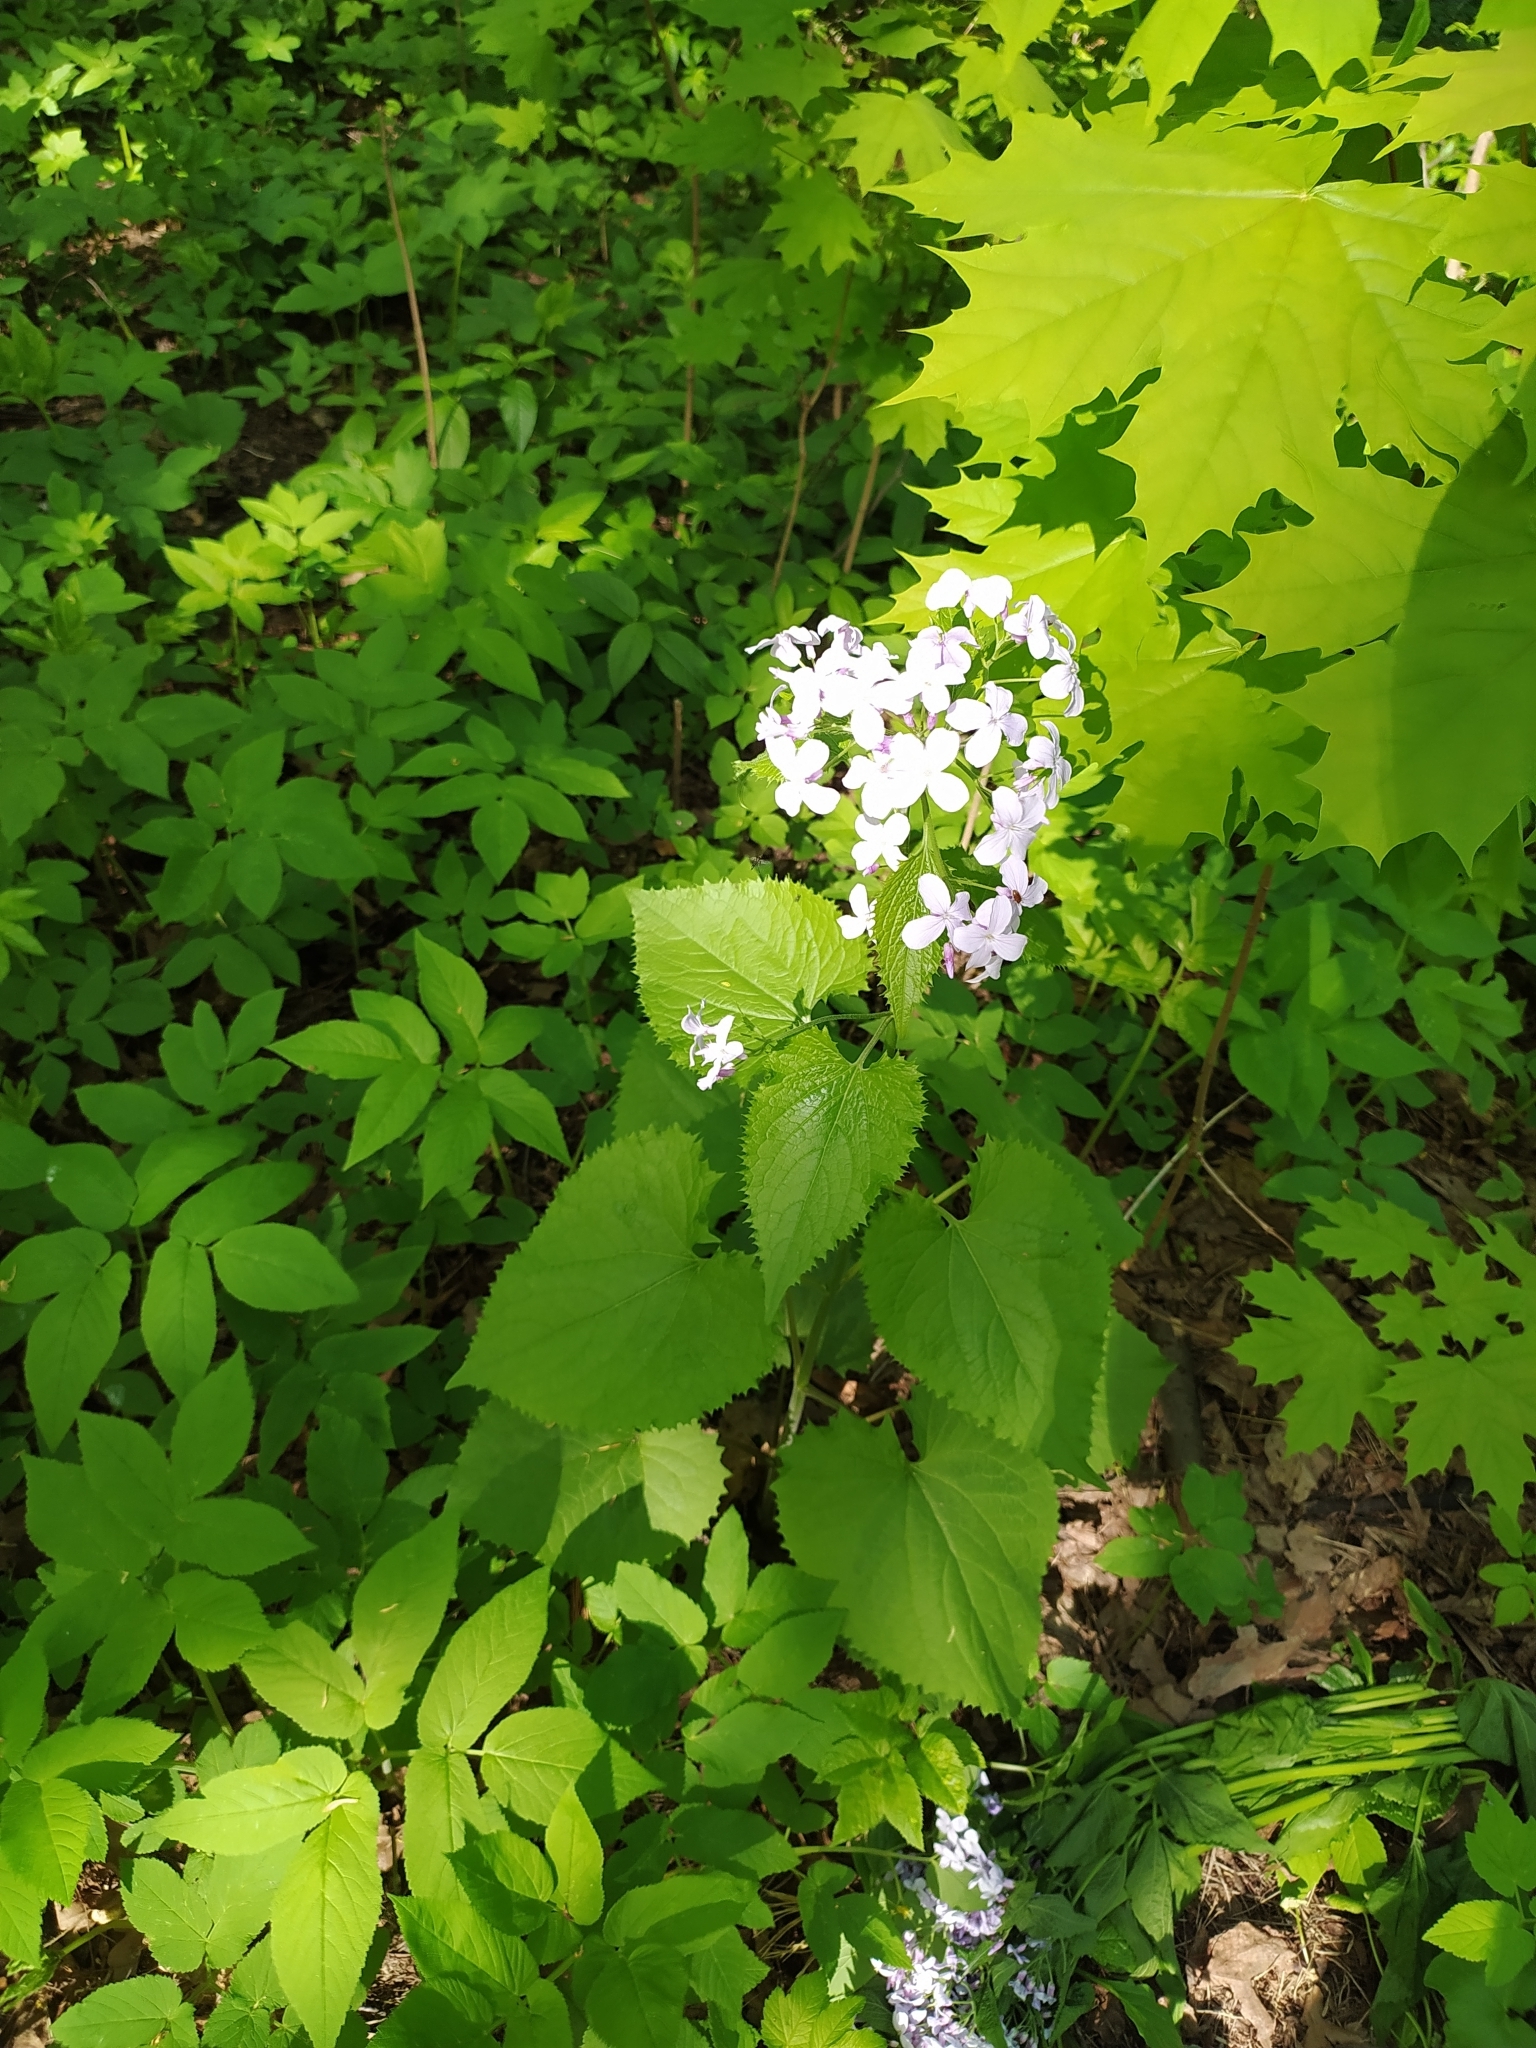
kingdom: Plantae
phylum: Tracheophyta
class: Magnoliopsida
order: Brassicales
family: Brassicaceae
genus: Lunaria
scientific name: Lunaria rediviva
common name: Perennial honesty
